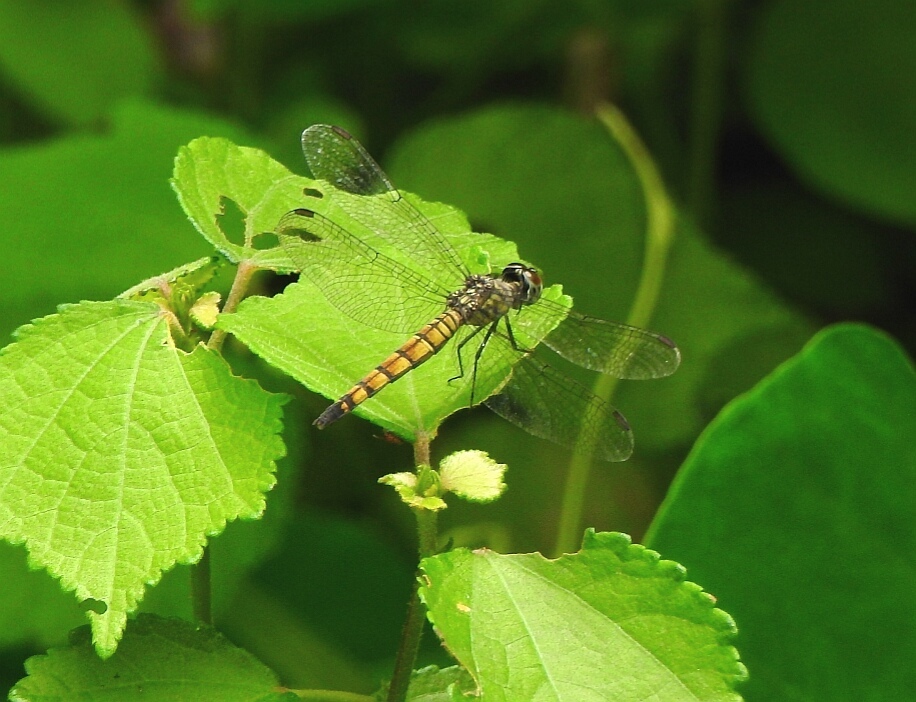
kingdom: Animalia
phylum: Arthropoda
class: Insecta
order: Odonata
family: Libellulidae
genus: Brachydiplax
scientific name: Brachydiplax chalybea
